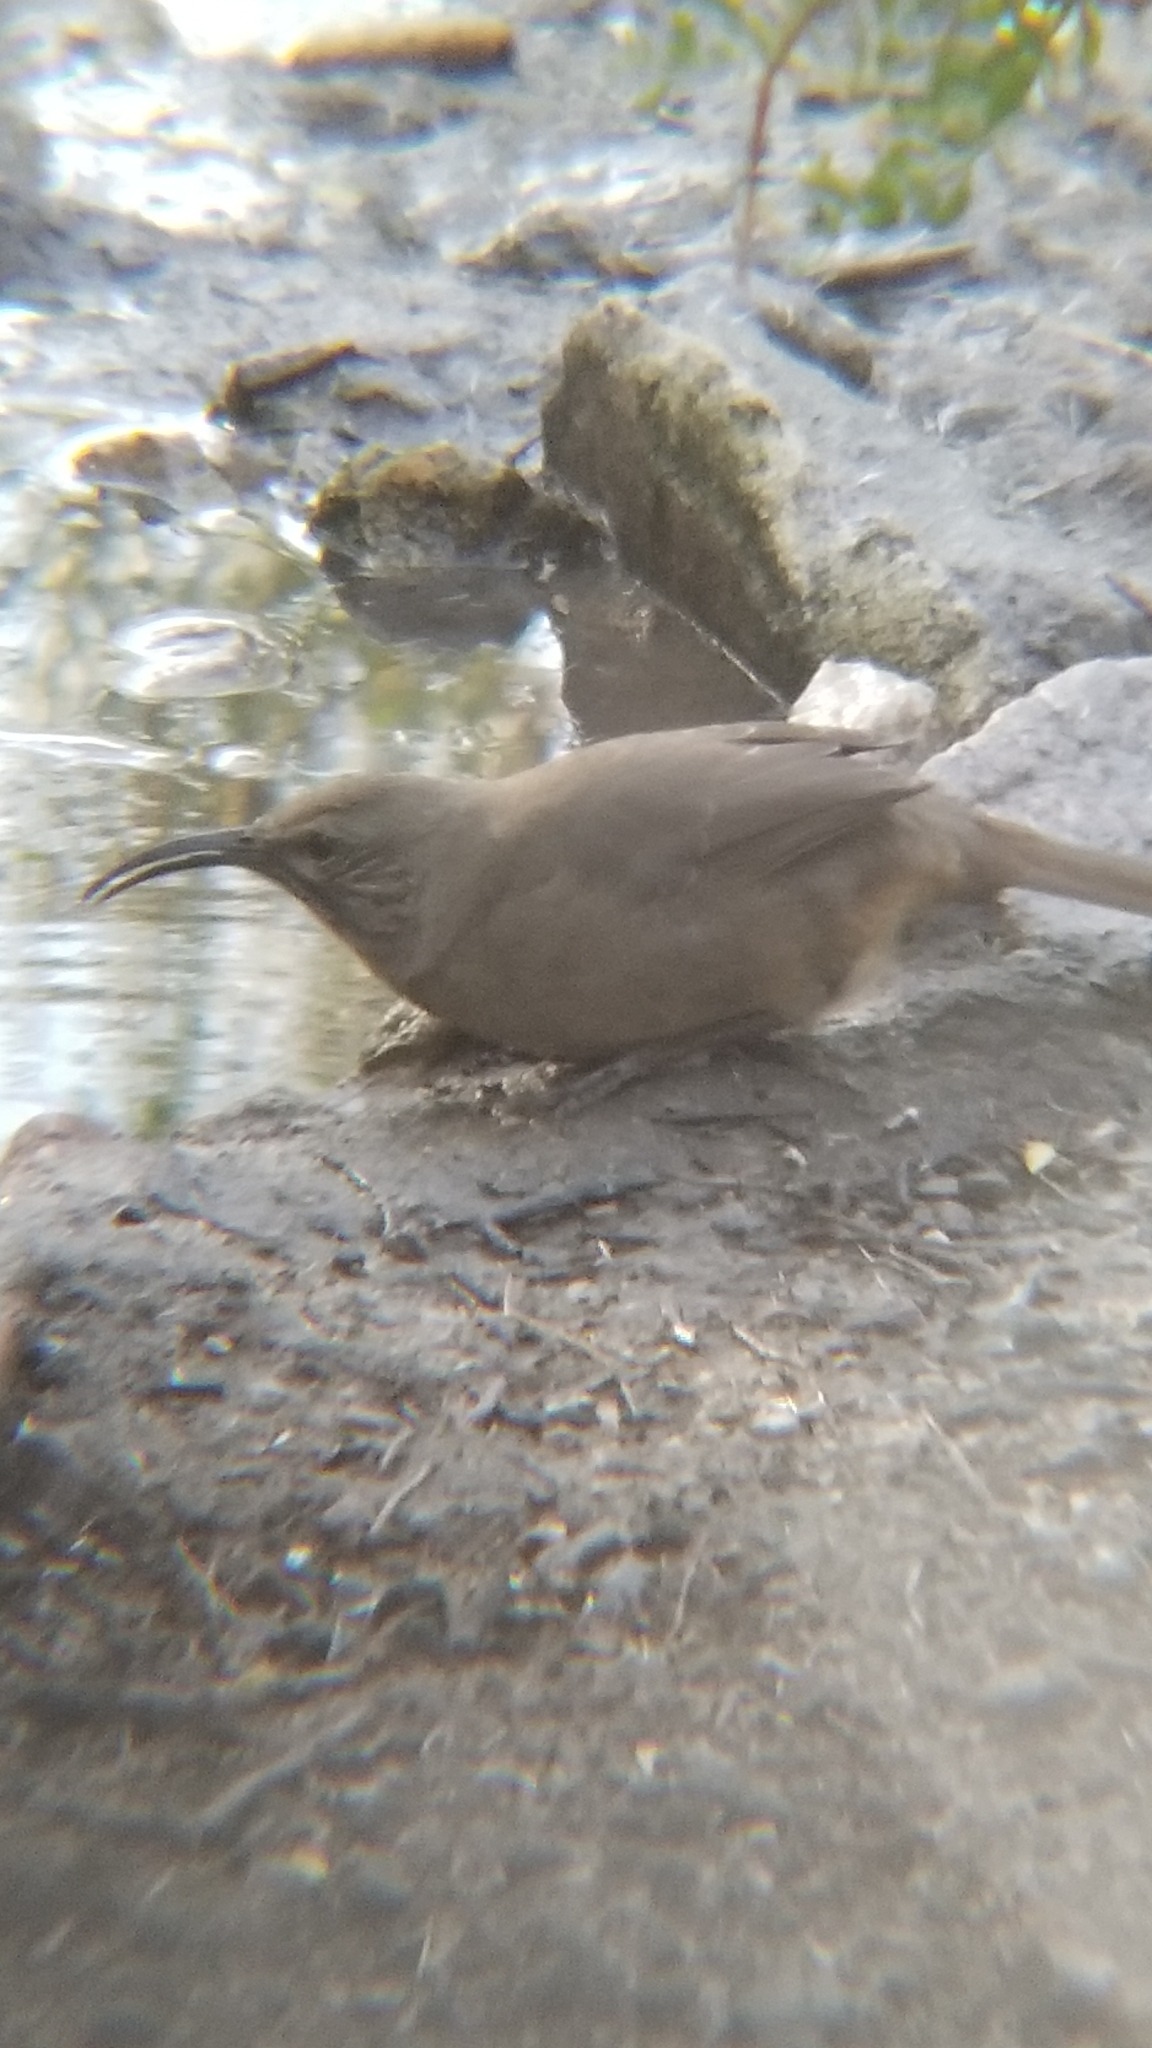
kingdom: Animalia
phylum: Chordata
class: Aves
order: Passeriformes
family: Mimidae
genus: Toxostoma
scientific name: Toxostoma redivivum
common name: California thrasher
